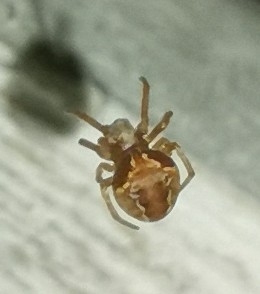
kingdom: Animalia
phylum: Arthropoda
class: Arachnida
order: Araneae
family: Araneidae
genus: Araneus
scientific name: Araneus sturmi
